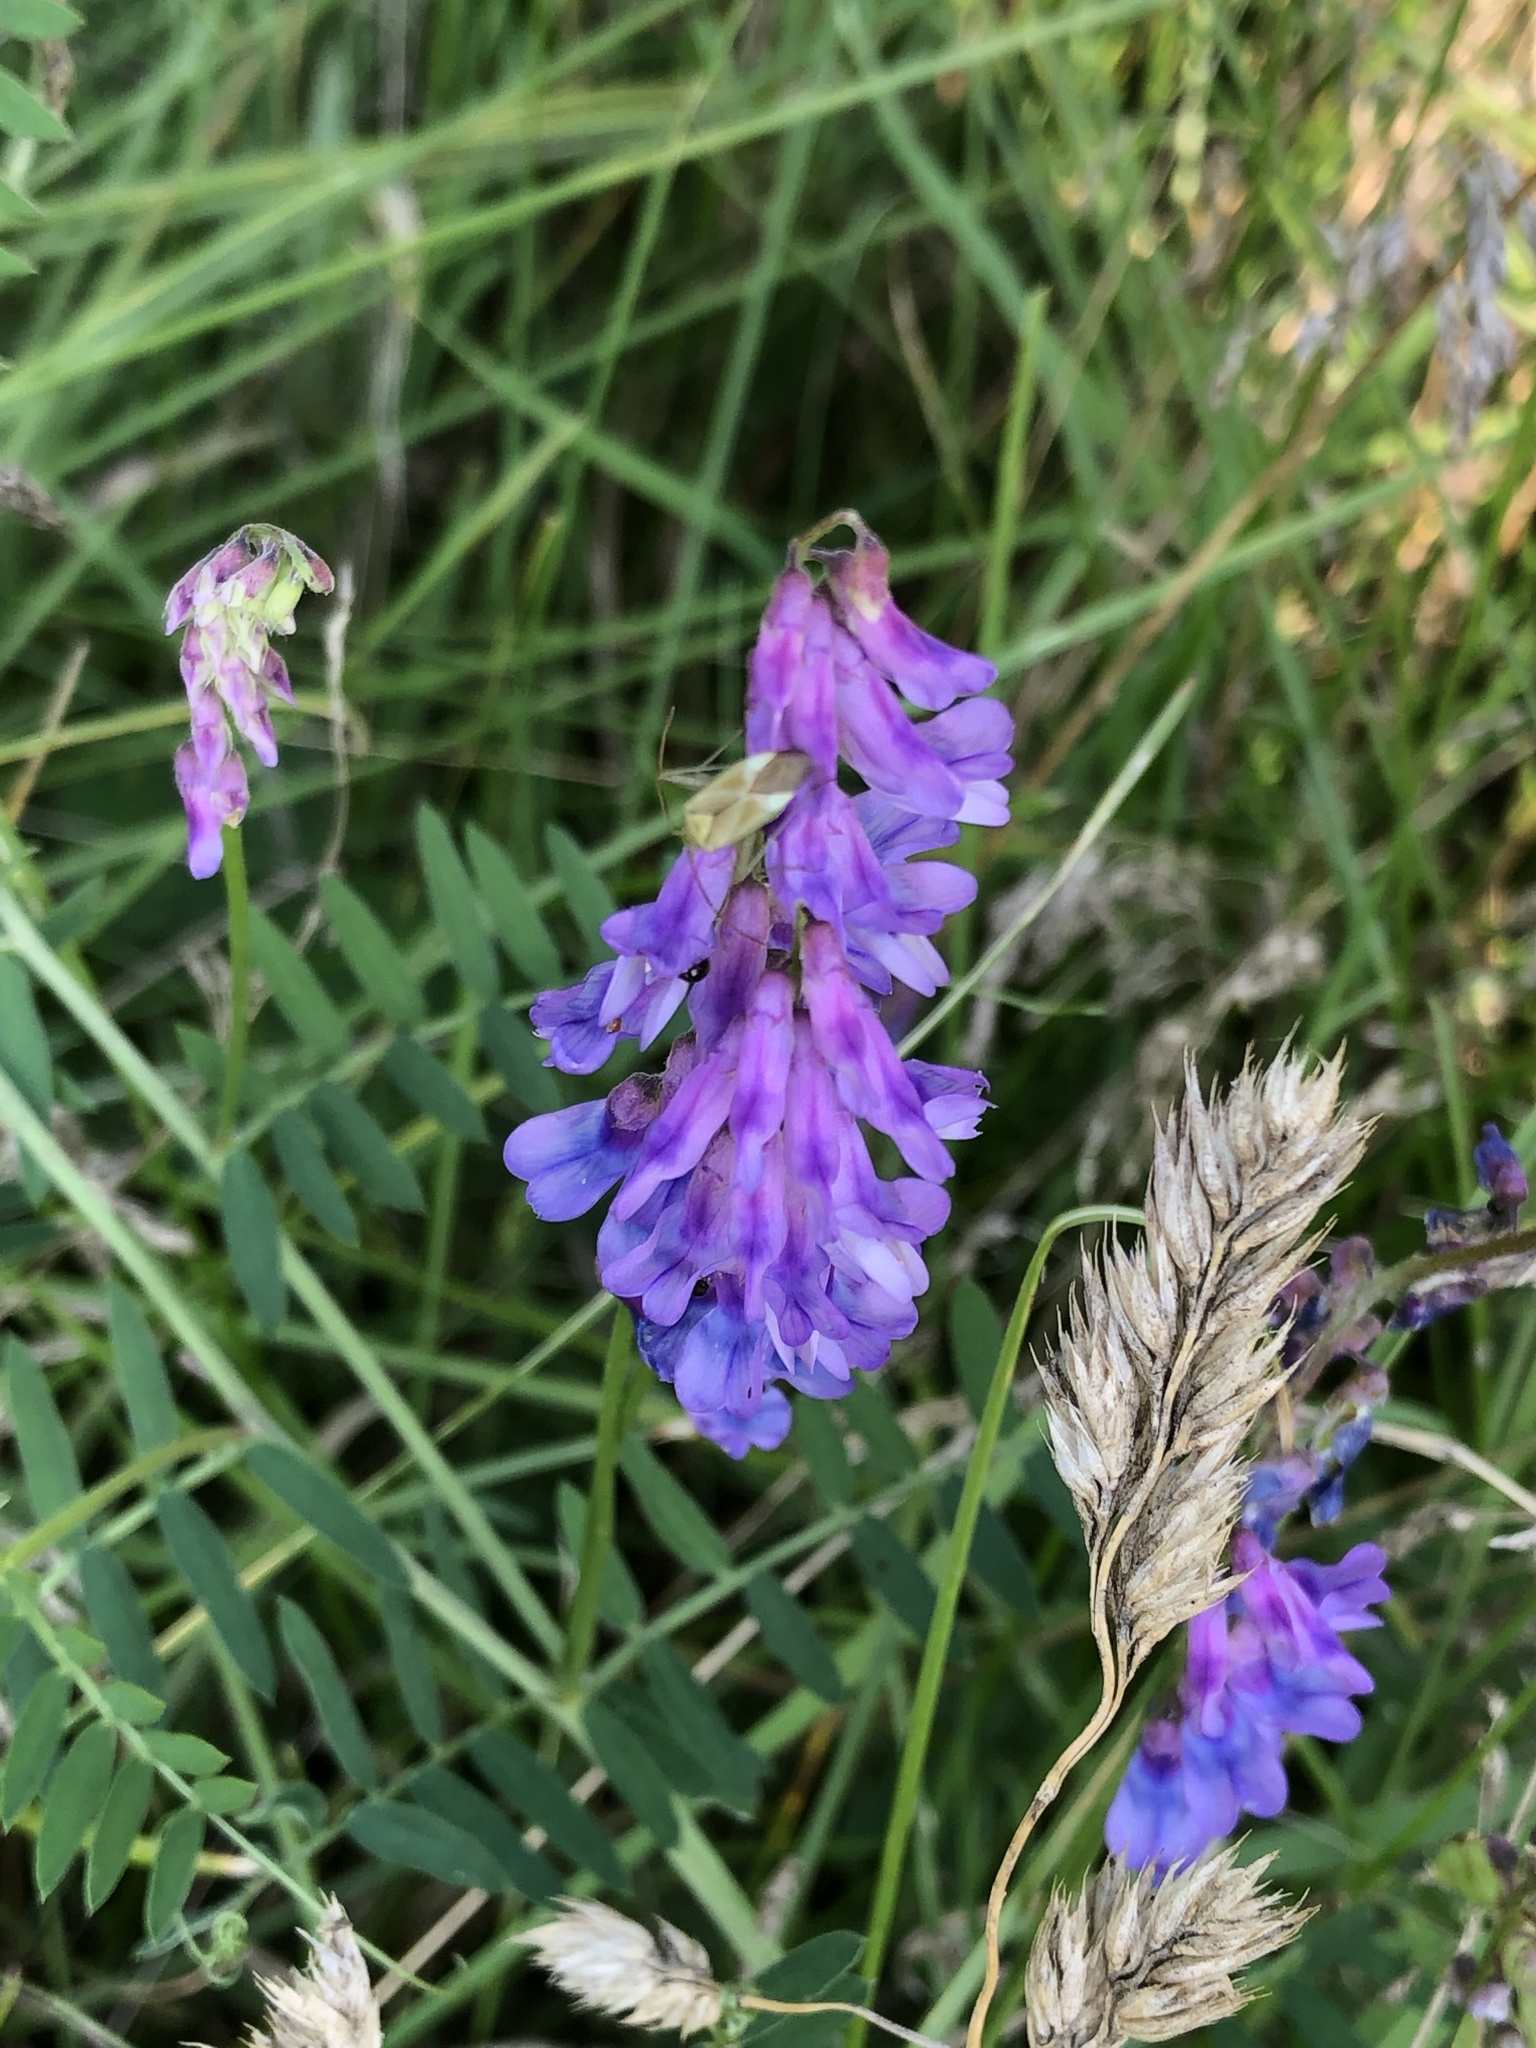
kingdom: Plantae
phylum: Tracheophyta
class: Magnoliopsida
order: Fabales
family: Fabaceae
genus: Vicia
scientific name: Vicia cracca
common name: Bird vetch
